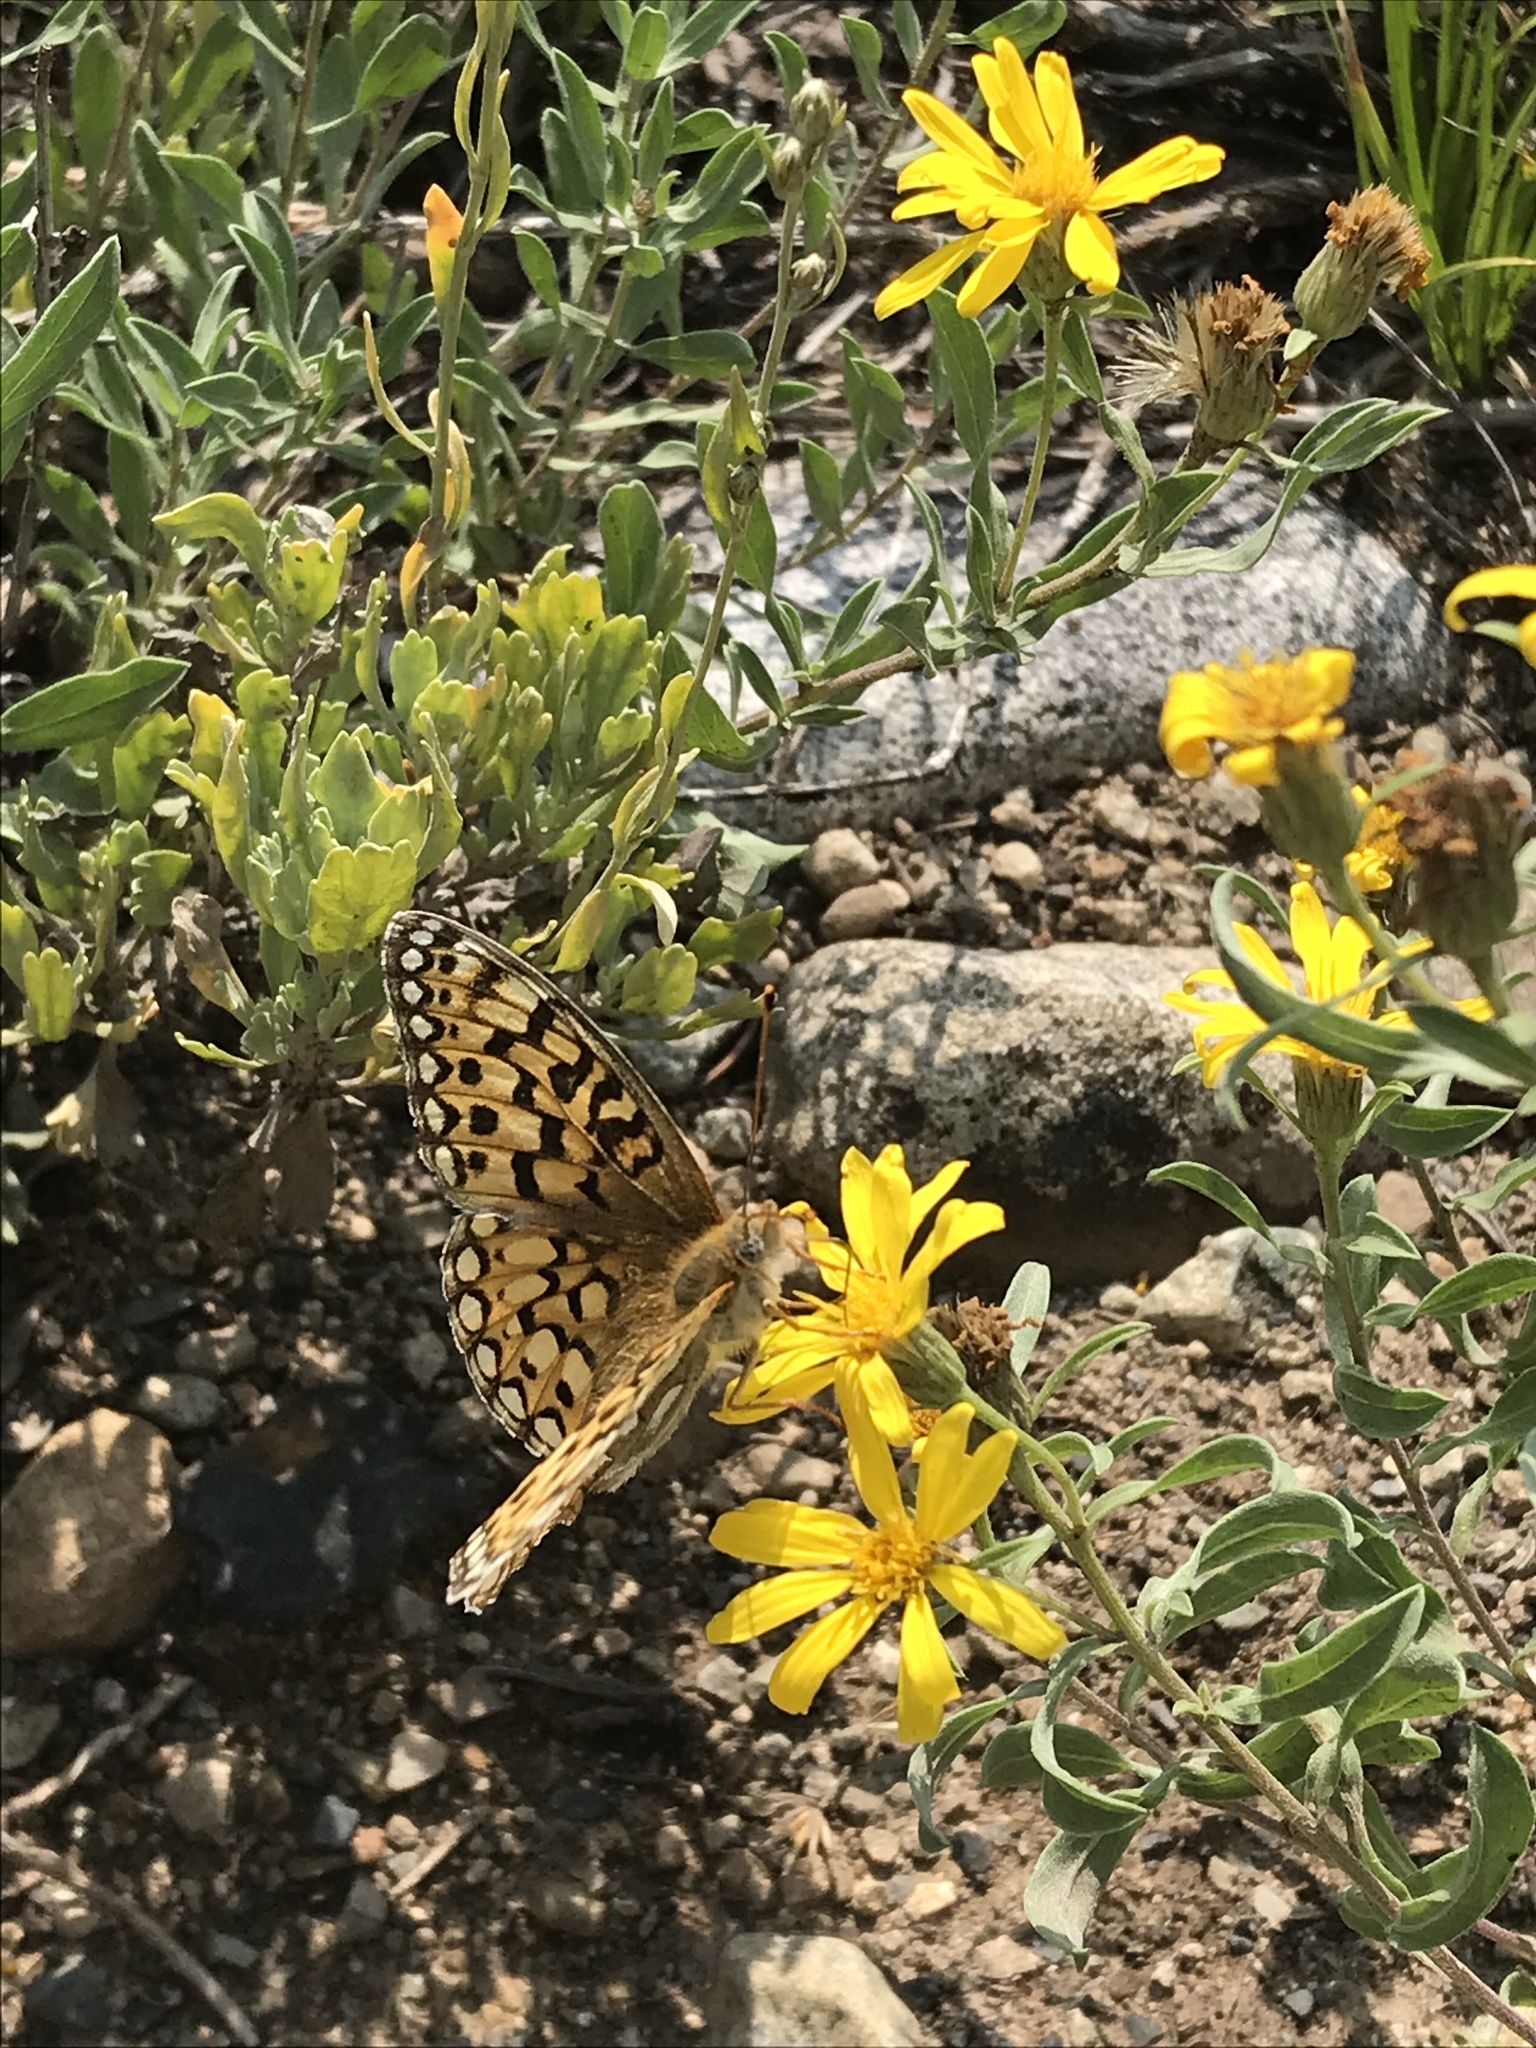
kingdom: Animalia
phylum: Arthropoda
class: Insecta
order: Lepidoptera
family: Nymphalidae
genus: Speyeria
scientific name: Speyeria callippe
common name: Callippe fritillary
